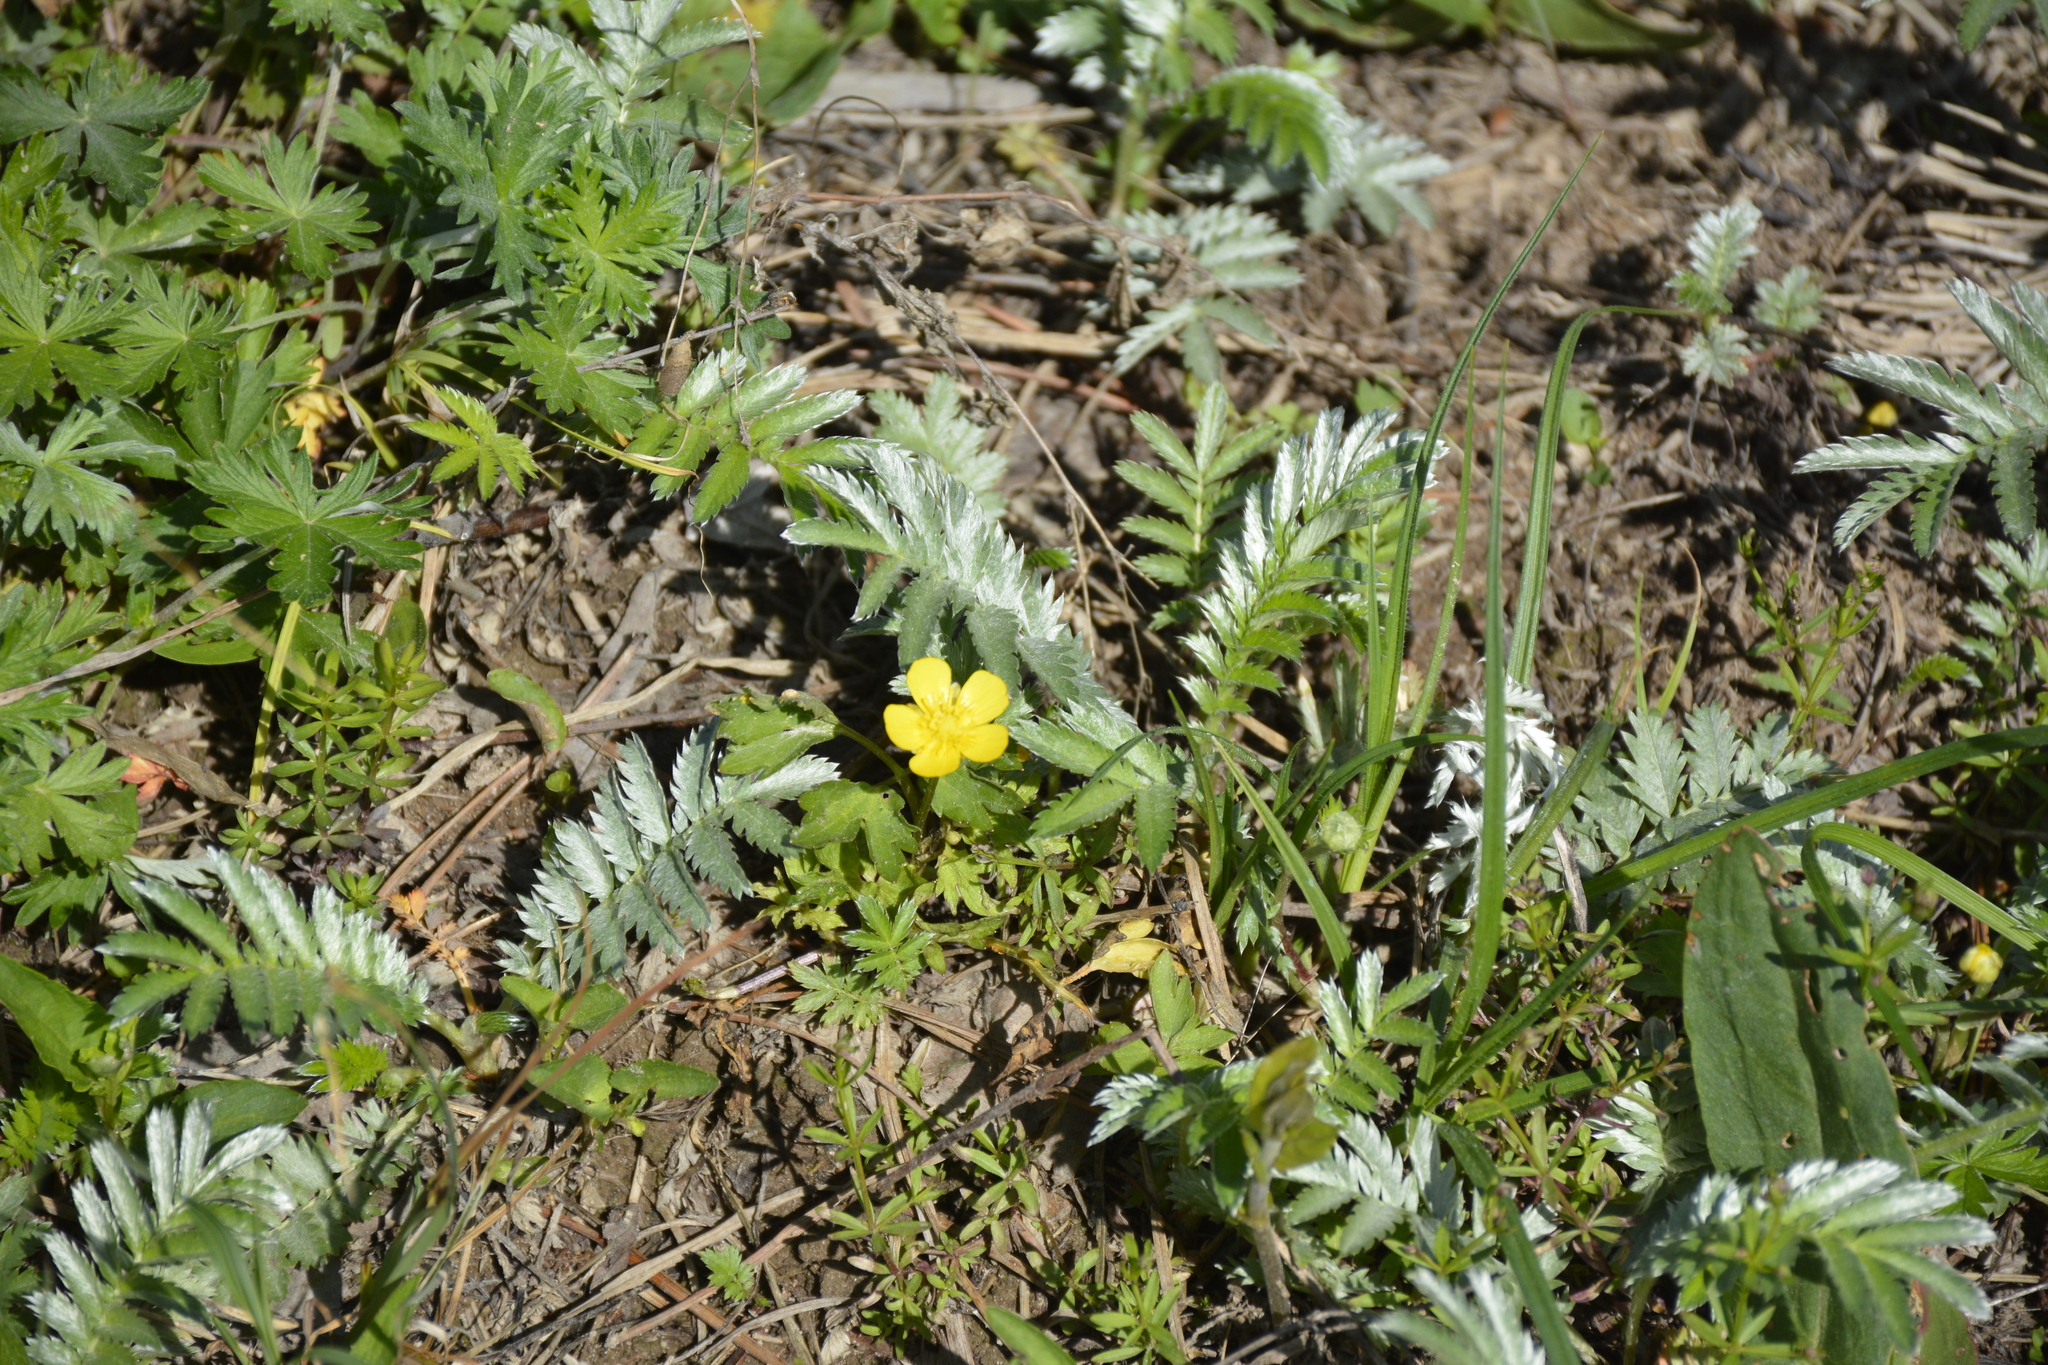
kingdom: Plantae
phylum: Tracheophyta
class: Magnoliopsida
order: Rosales
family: Rosaceae
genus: Argentina
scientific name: Argentina anserina
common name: Common silverweed
